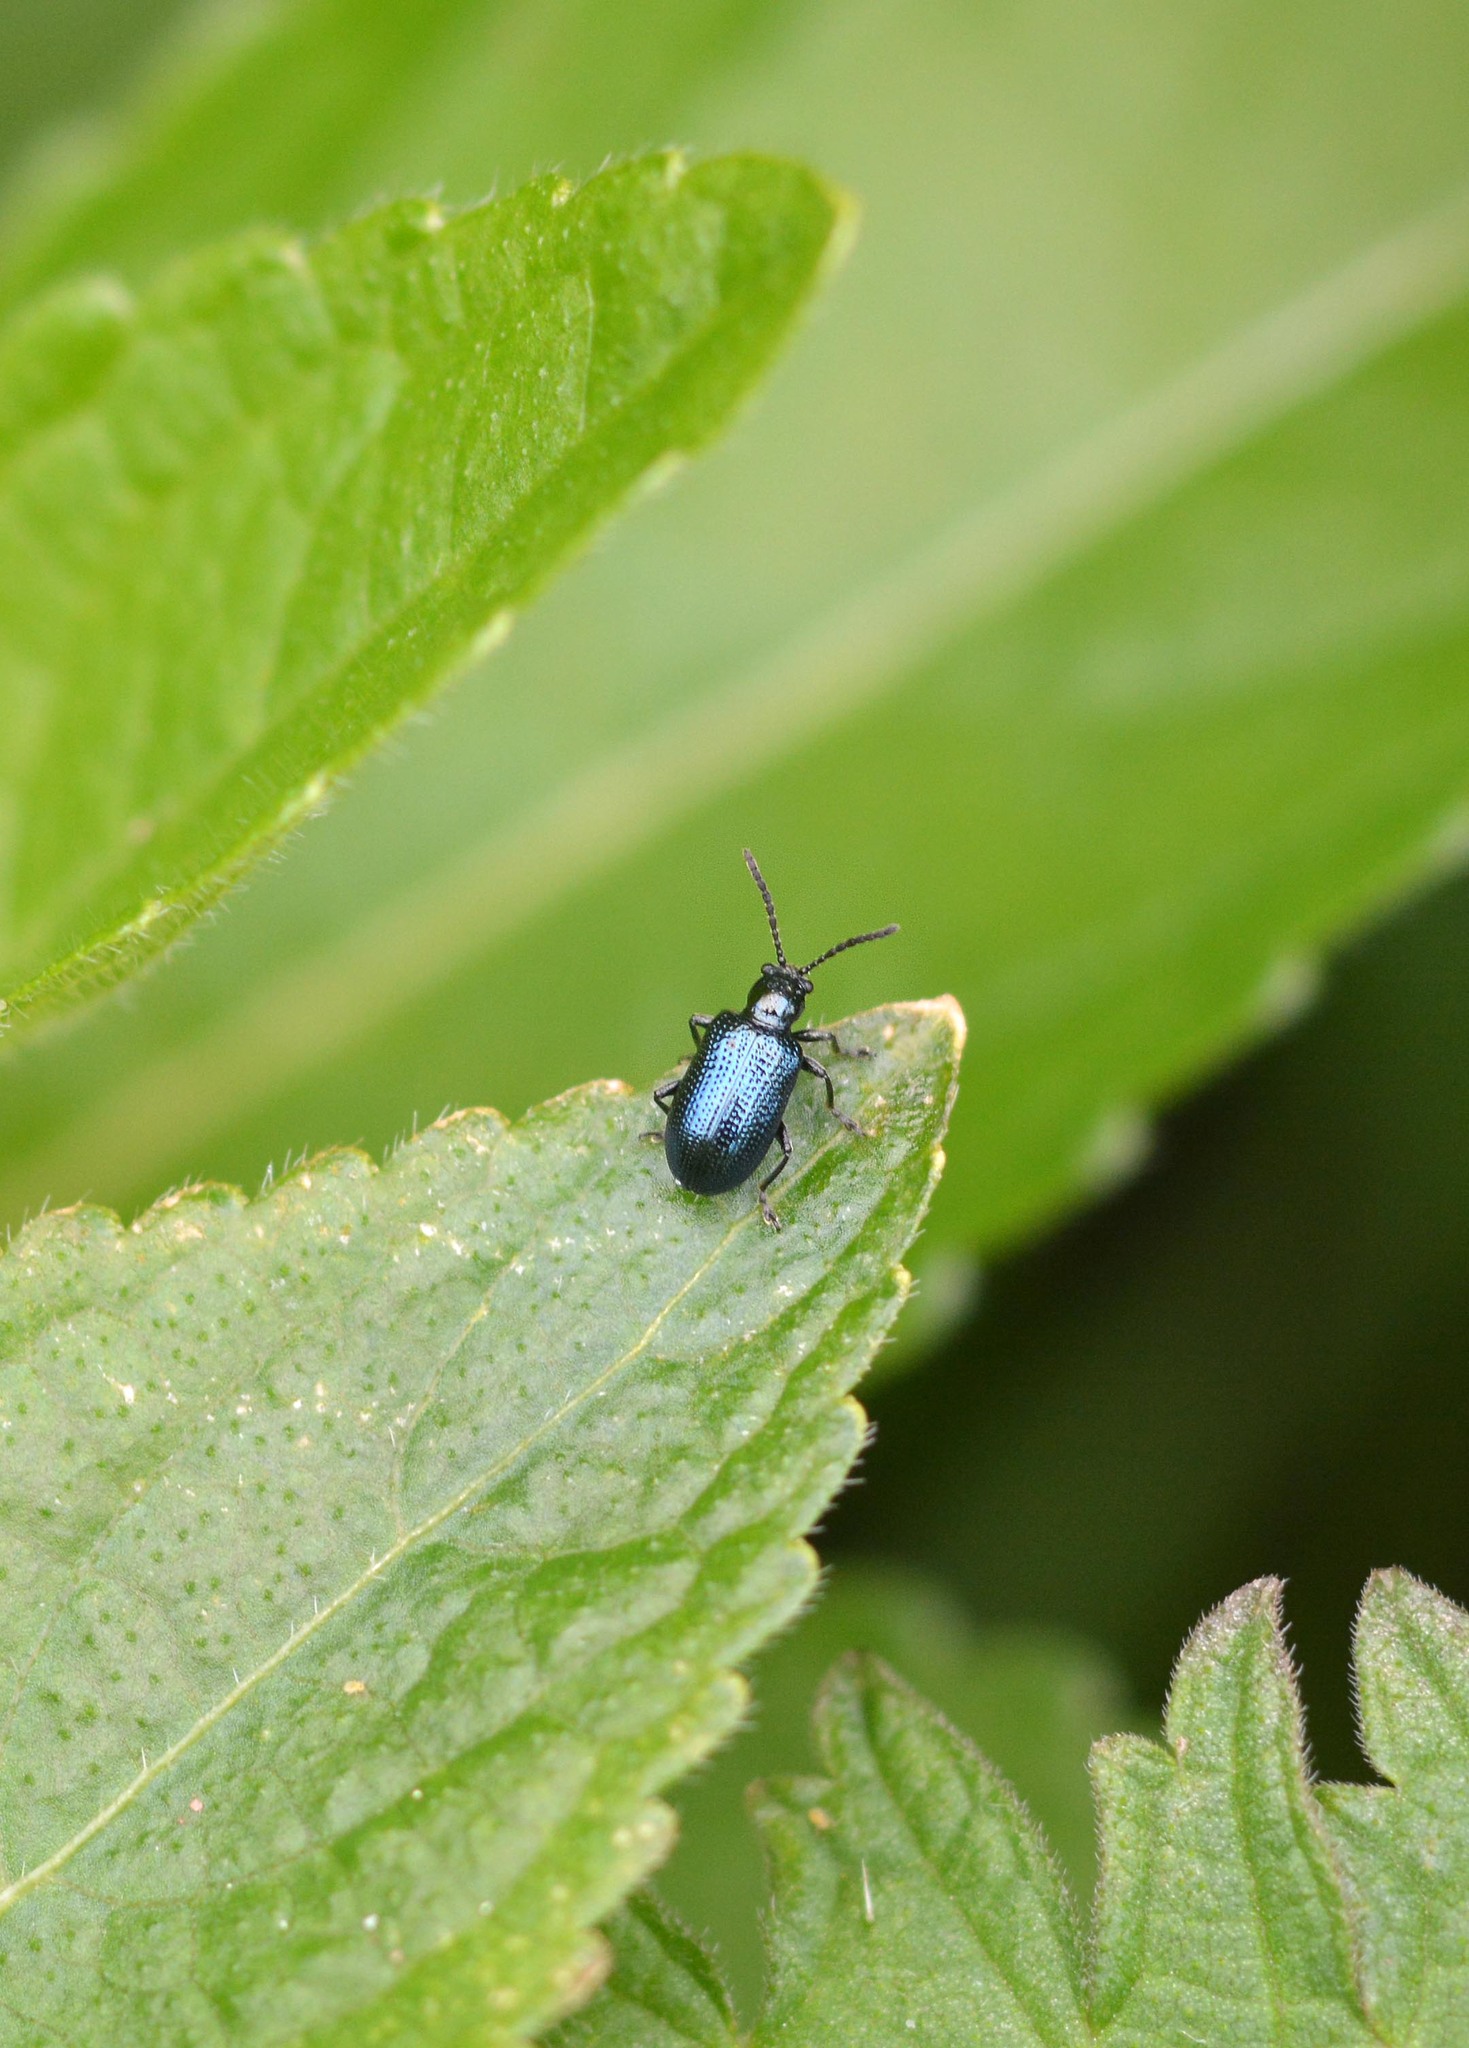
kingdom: Animalia
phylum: Arthropoda
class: Insecta
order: Coleoptera
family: Chrysomelidae
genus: Oulema
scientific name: Oulema gallaeciana
